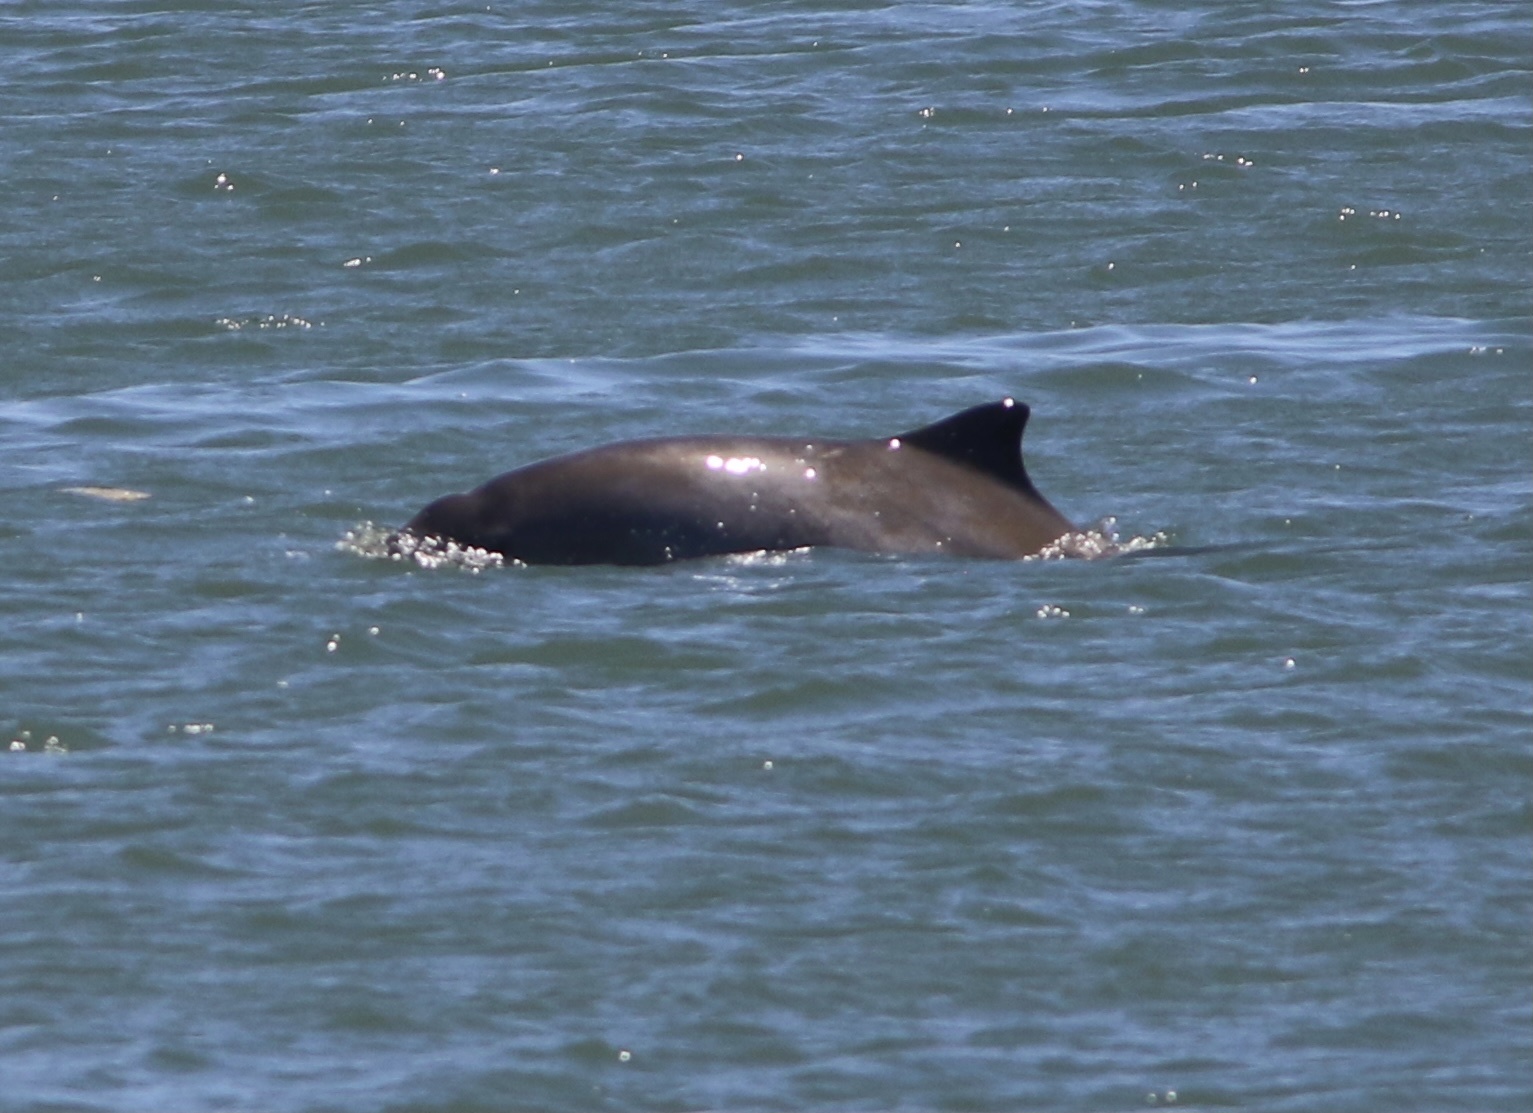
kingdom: Animalia
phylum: Chordata
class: Mammalia
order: Cetacea
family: Phocoenidae
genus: Phocoena
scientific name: Phocoena phocoena
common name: Harbor porpoise
